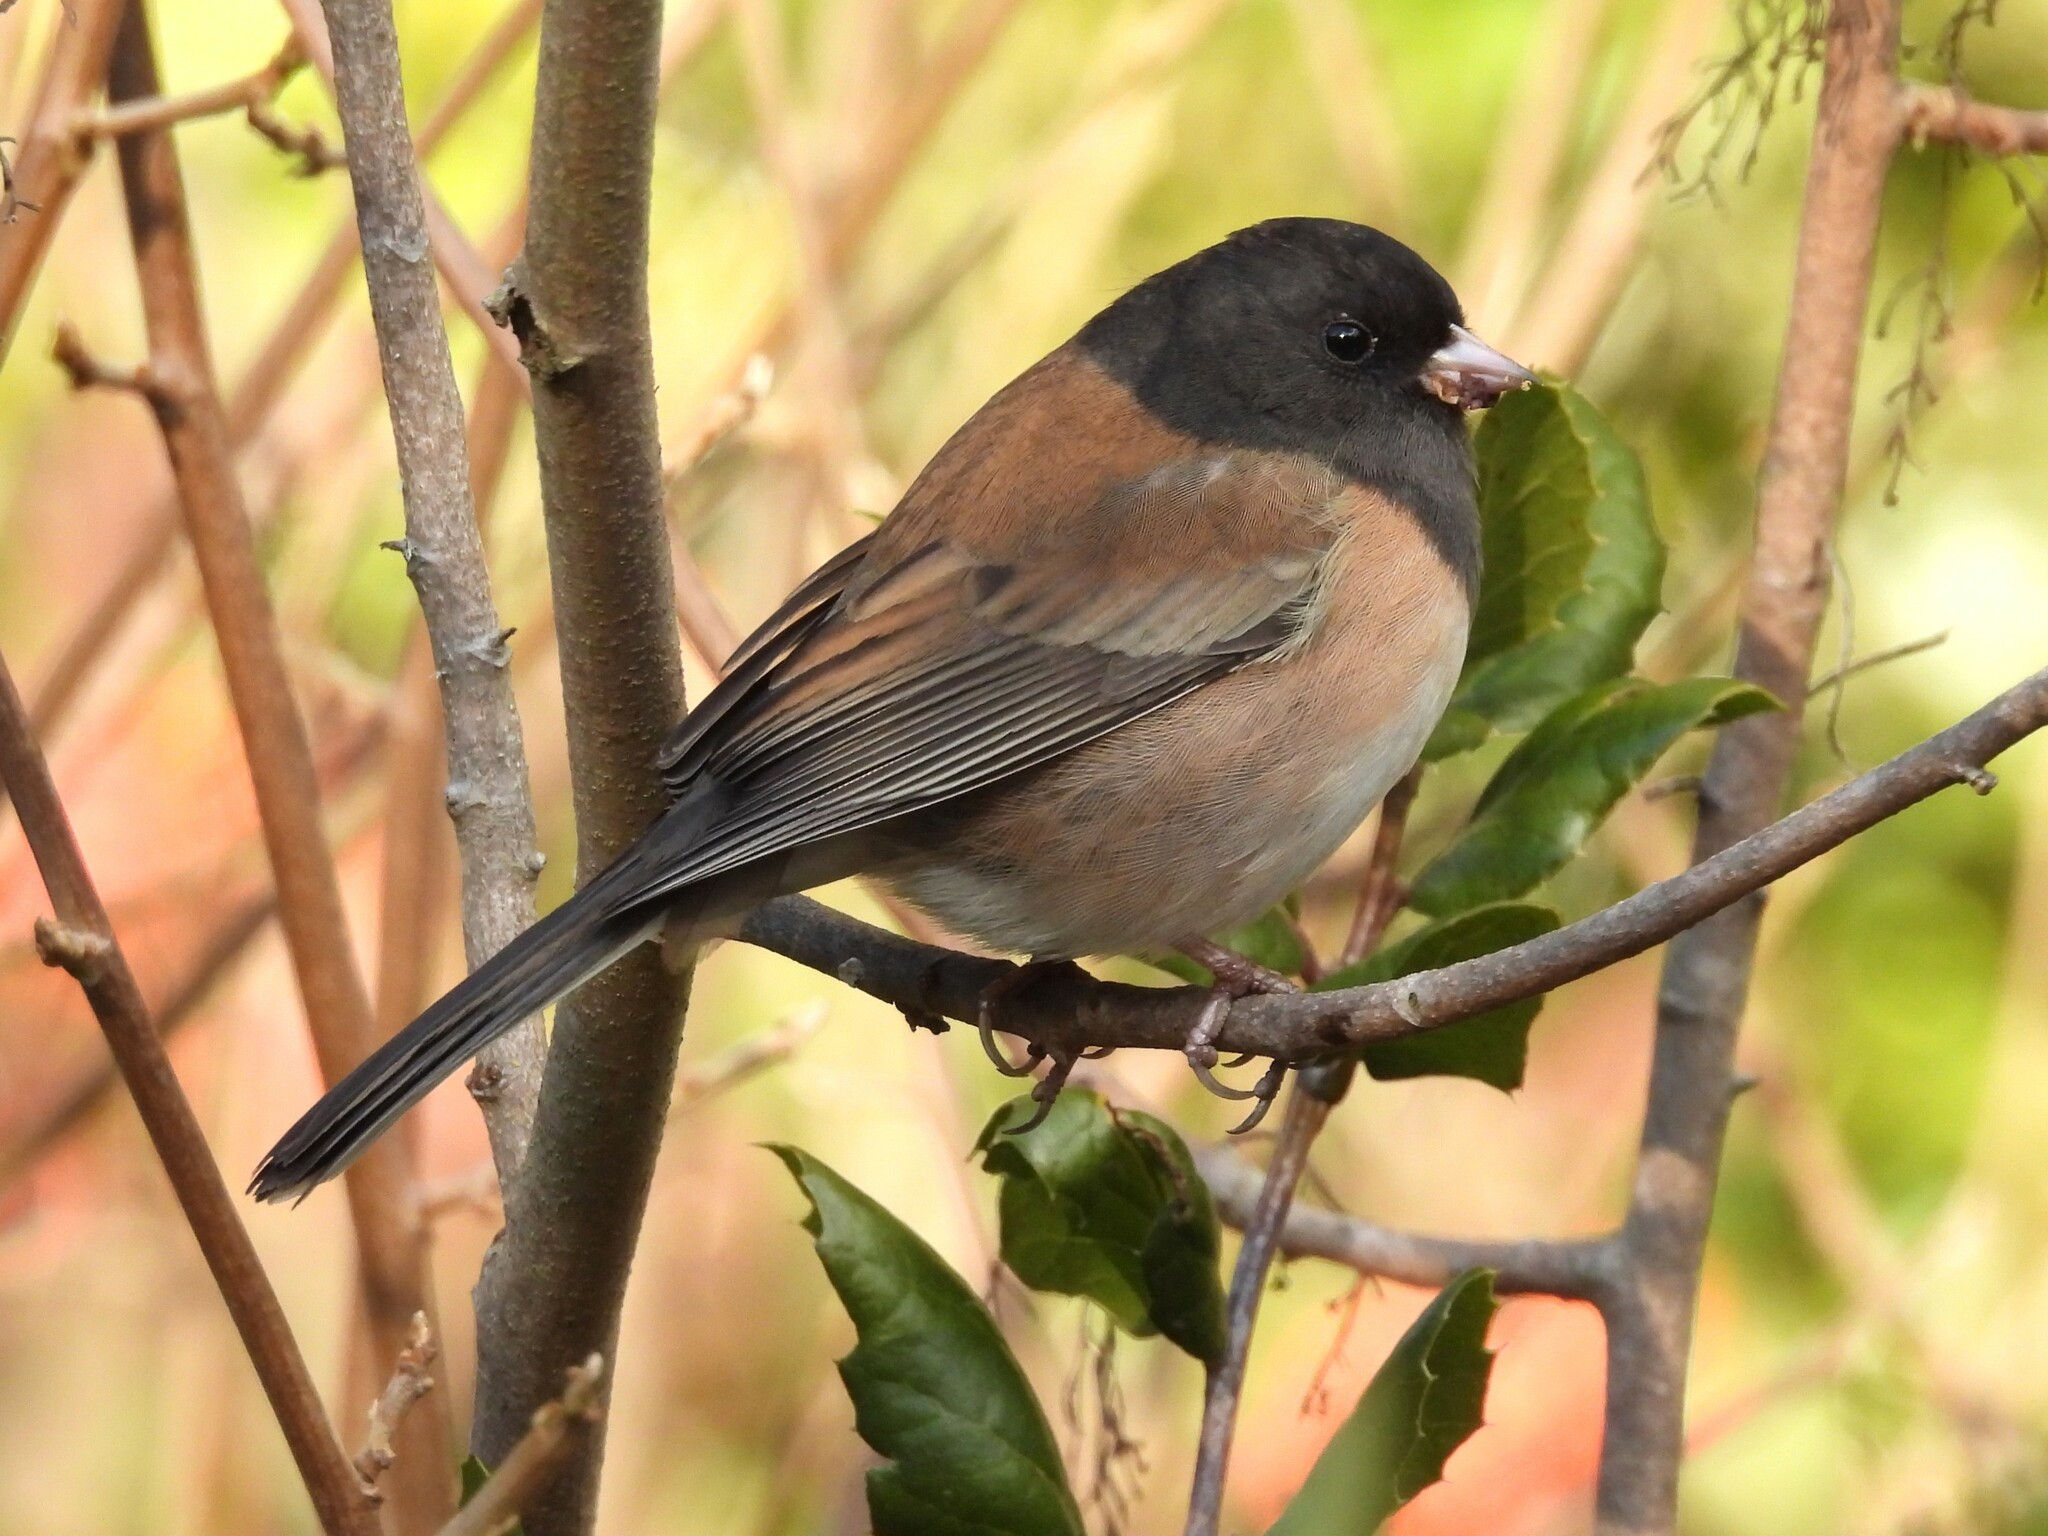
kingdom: Animalia
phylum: Chordata
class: Aves
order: Passeriformes
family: Passerellidae
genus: Junco
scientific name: Junco hyemalis
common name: Dark-eyed junco
